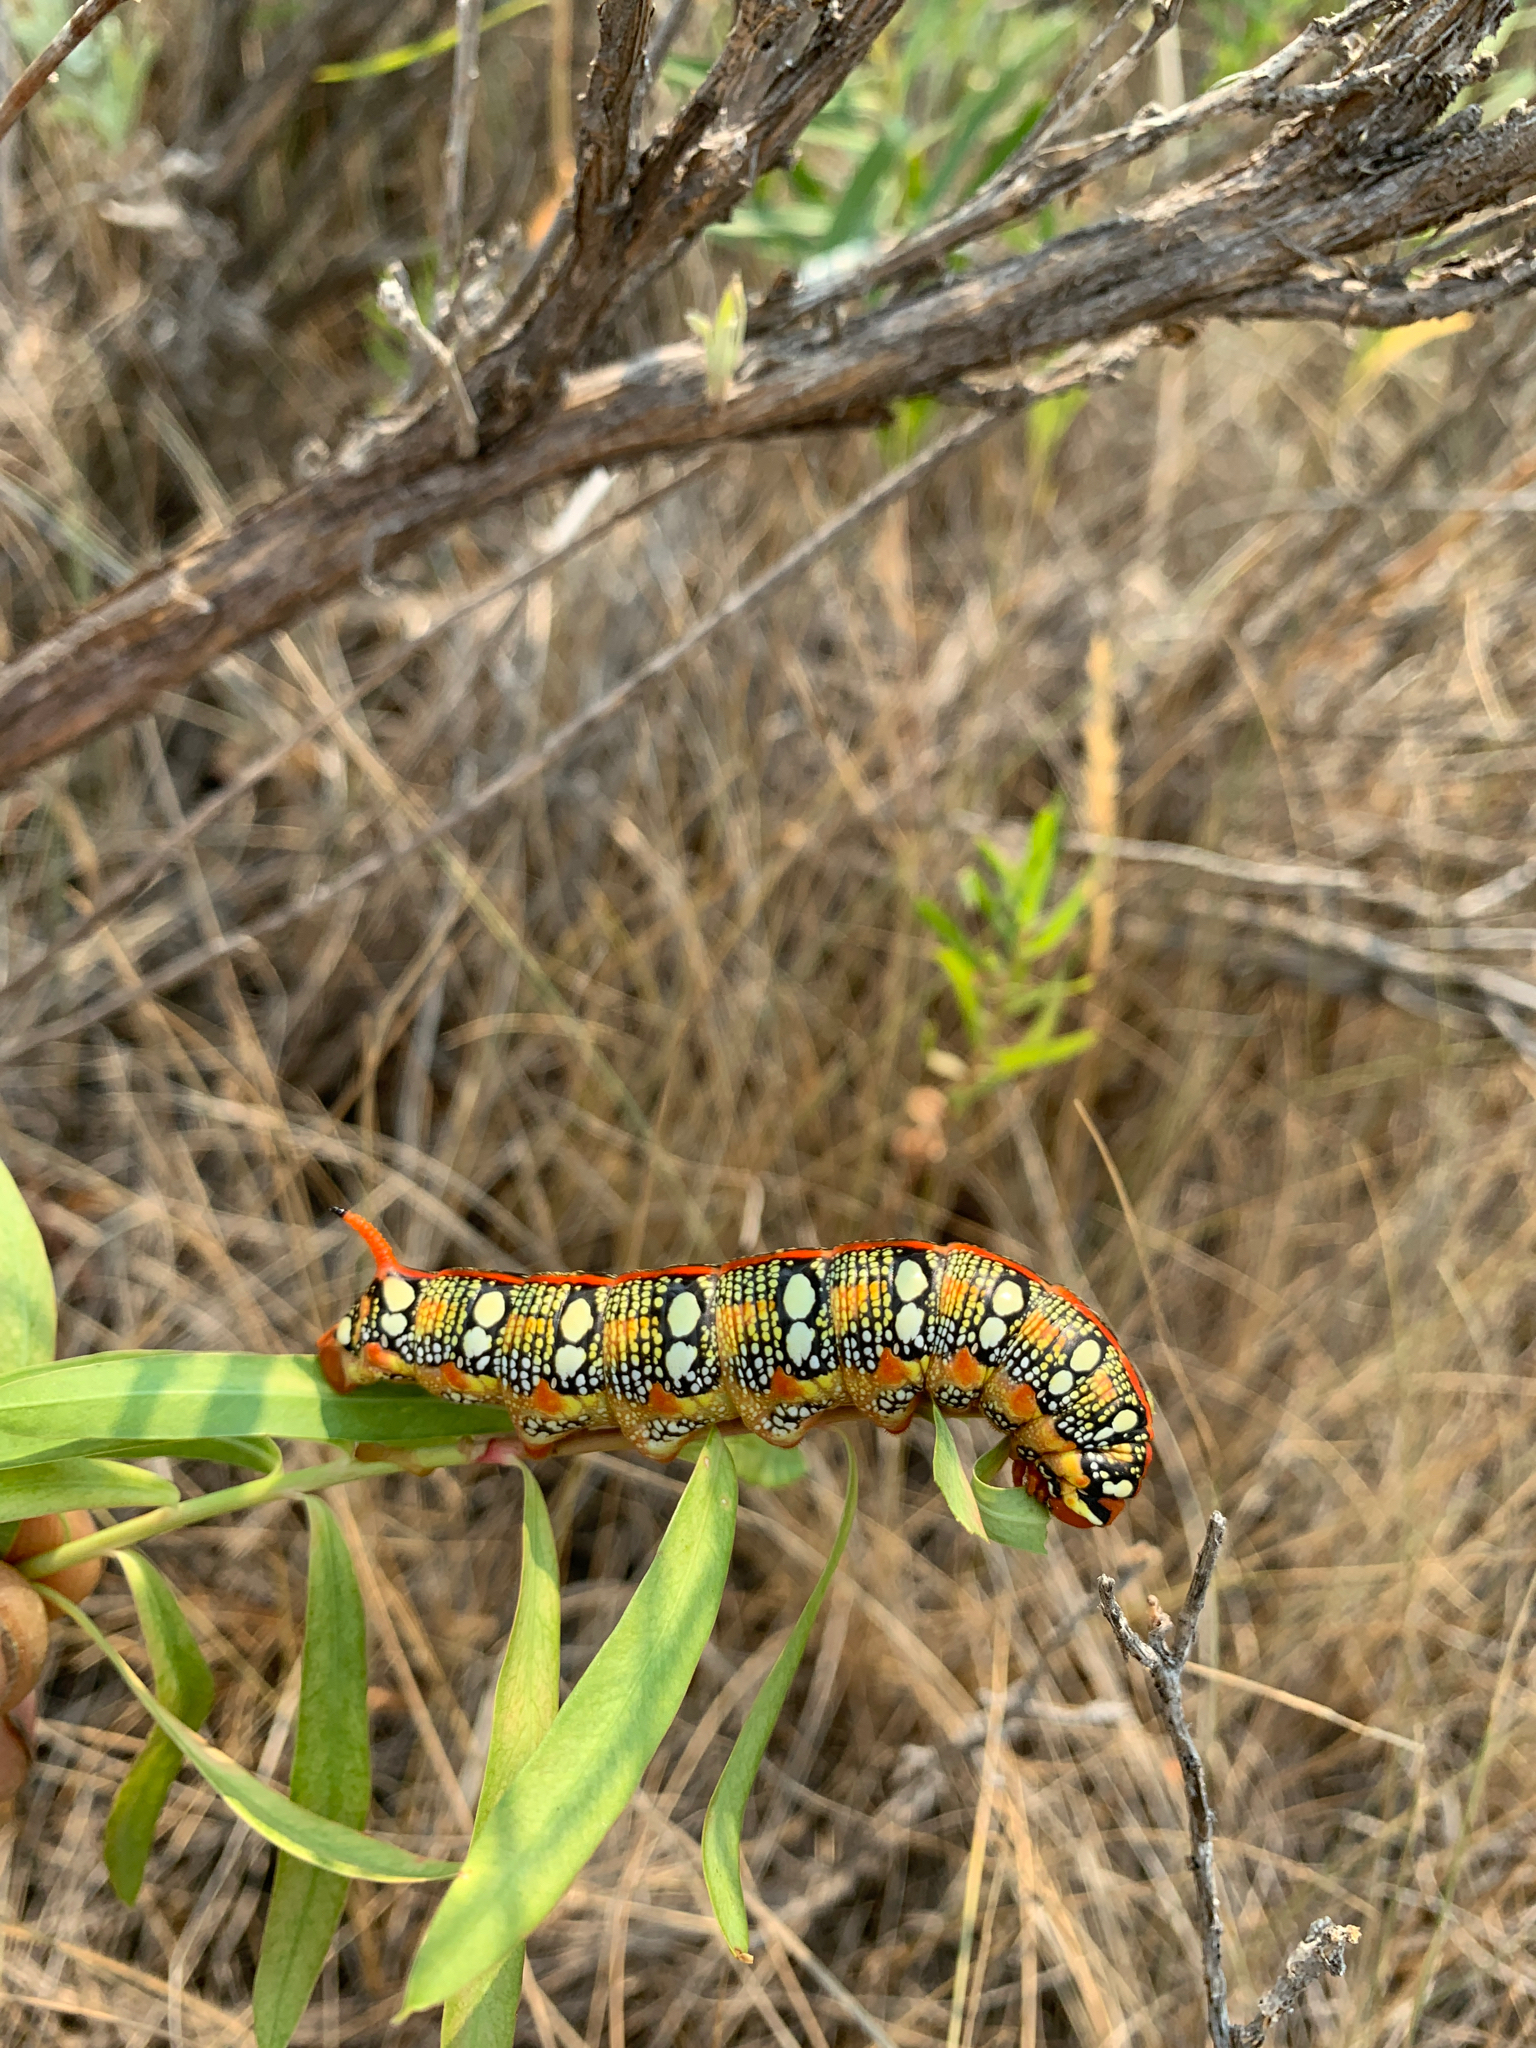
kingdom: Animalia
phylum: Arthropoda
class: Insecta
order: Lepidoptera
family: Sphingidae
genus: Hyles
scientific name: Hyles euphorbiae
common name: Spurge hawk-moth
